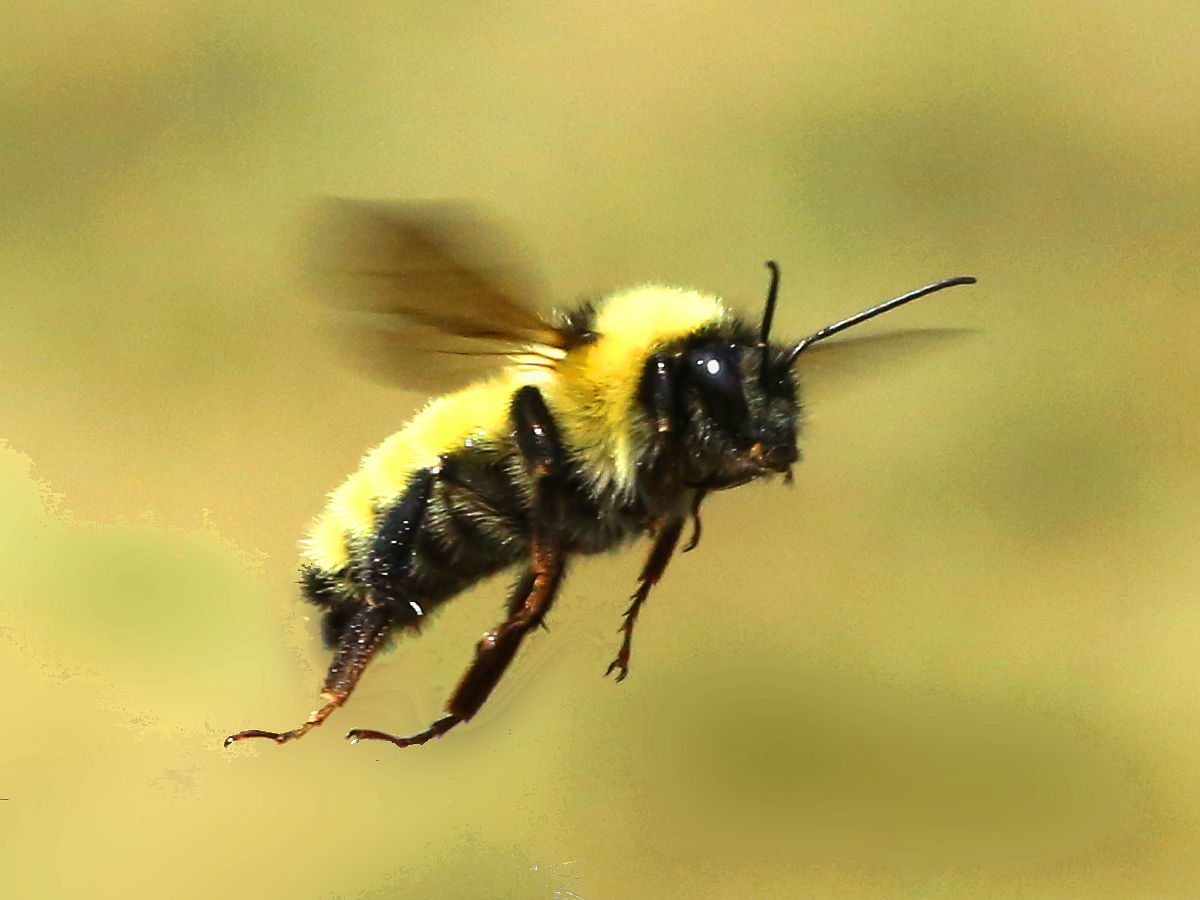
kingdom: Animalia
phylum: Arthropoda
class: Insecta
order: Hymenoptera
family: Apidae
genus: Bombus
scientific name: Bombus fervidus
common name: Yellow bumble bee
